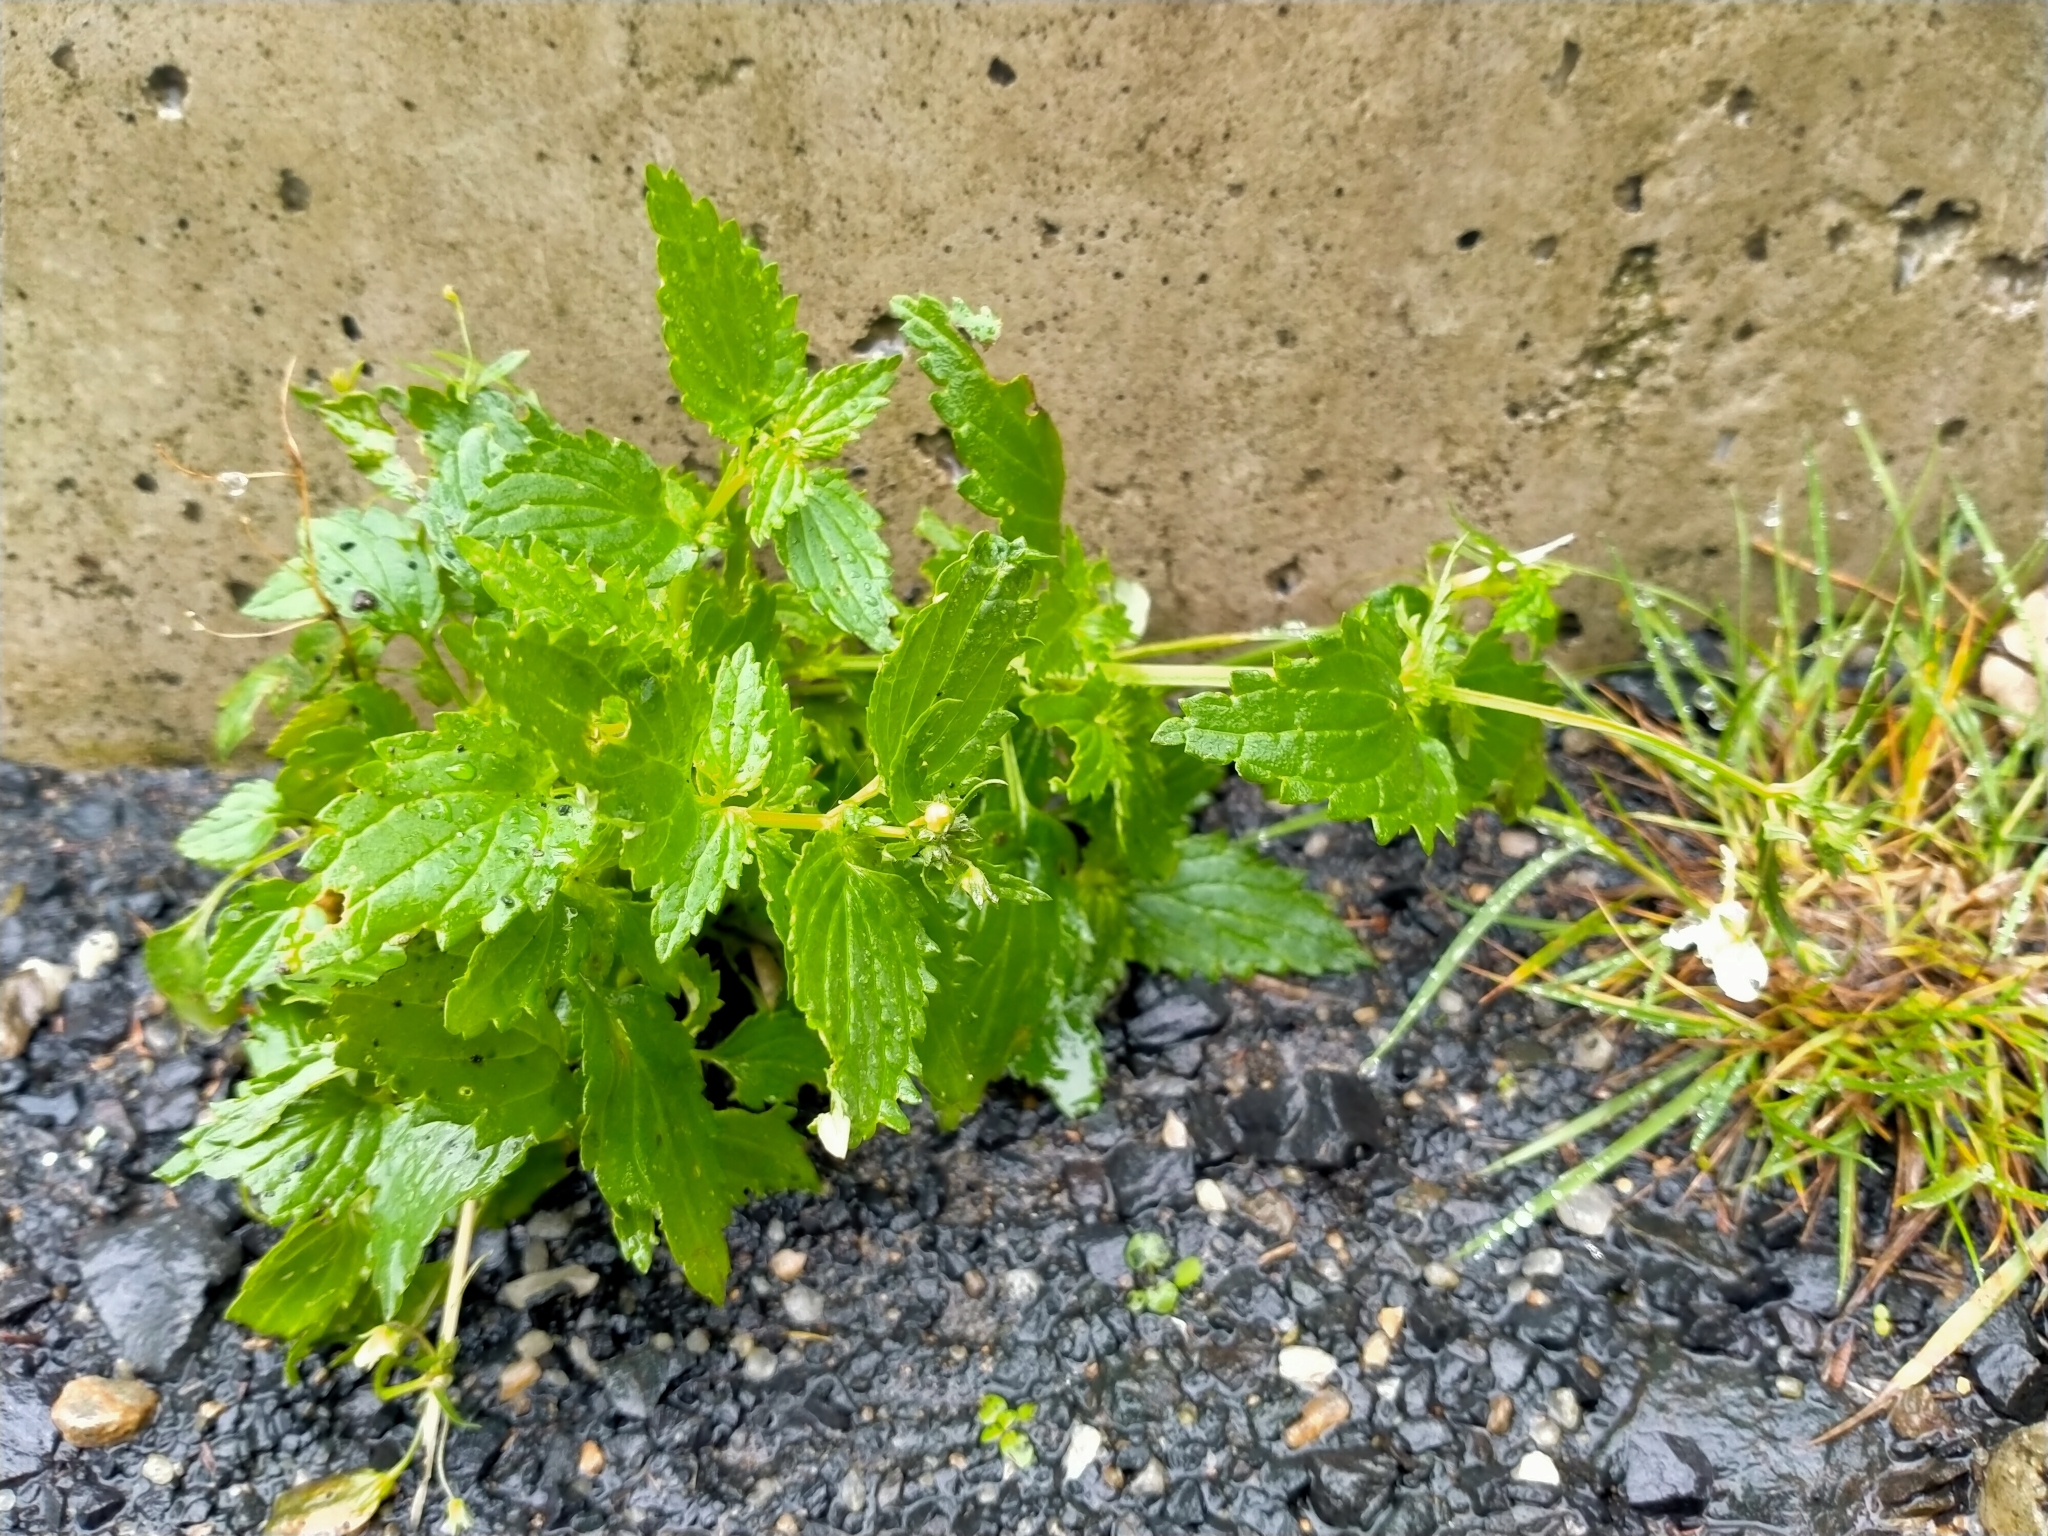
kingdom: Plantae
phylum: Tracheophyta
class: Magnoliopsida
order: Lamiales
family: Scrophulariaceae
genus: Nemesia
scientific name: Nemesia floribunda
